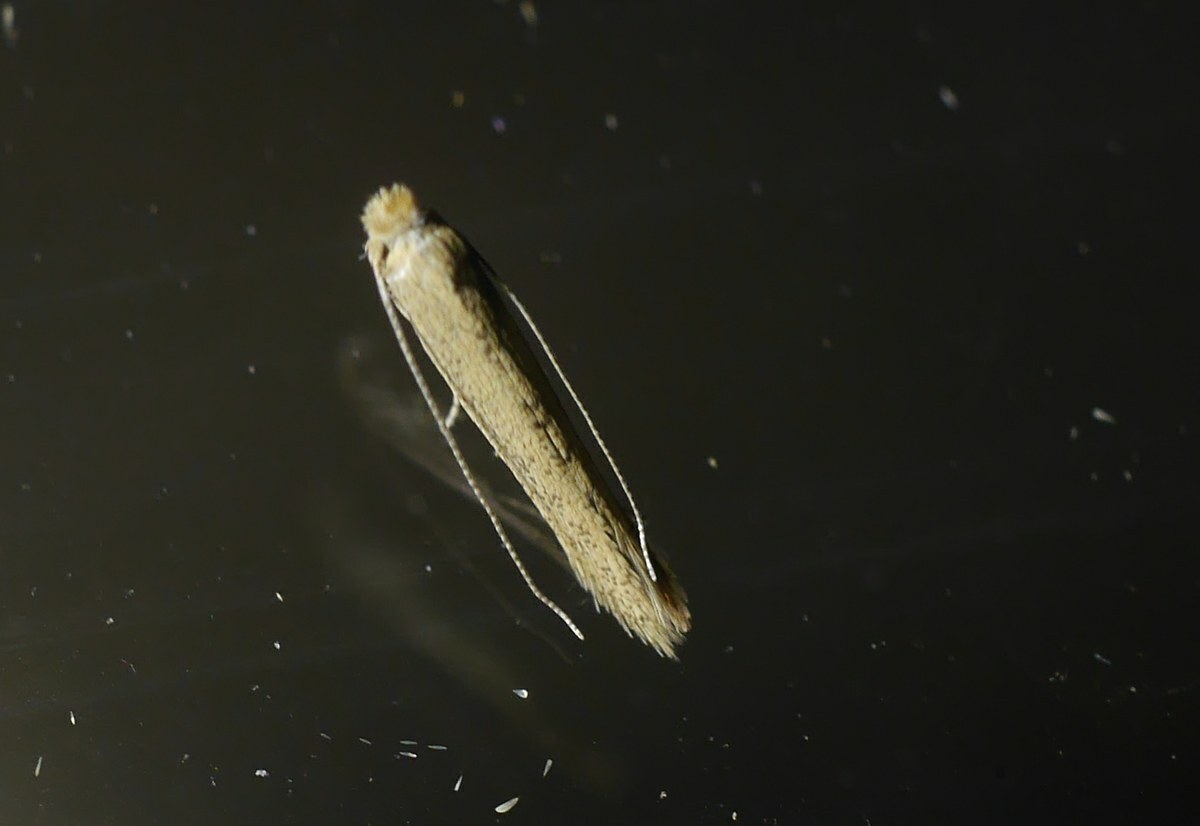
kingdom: Animalia
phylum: Arthropoda
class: Insecta
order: Lepidoptera
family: Bedelliidae
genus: Bedellia
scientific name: Bedellia somnulentella
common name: Morning-glory leafminer moth
